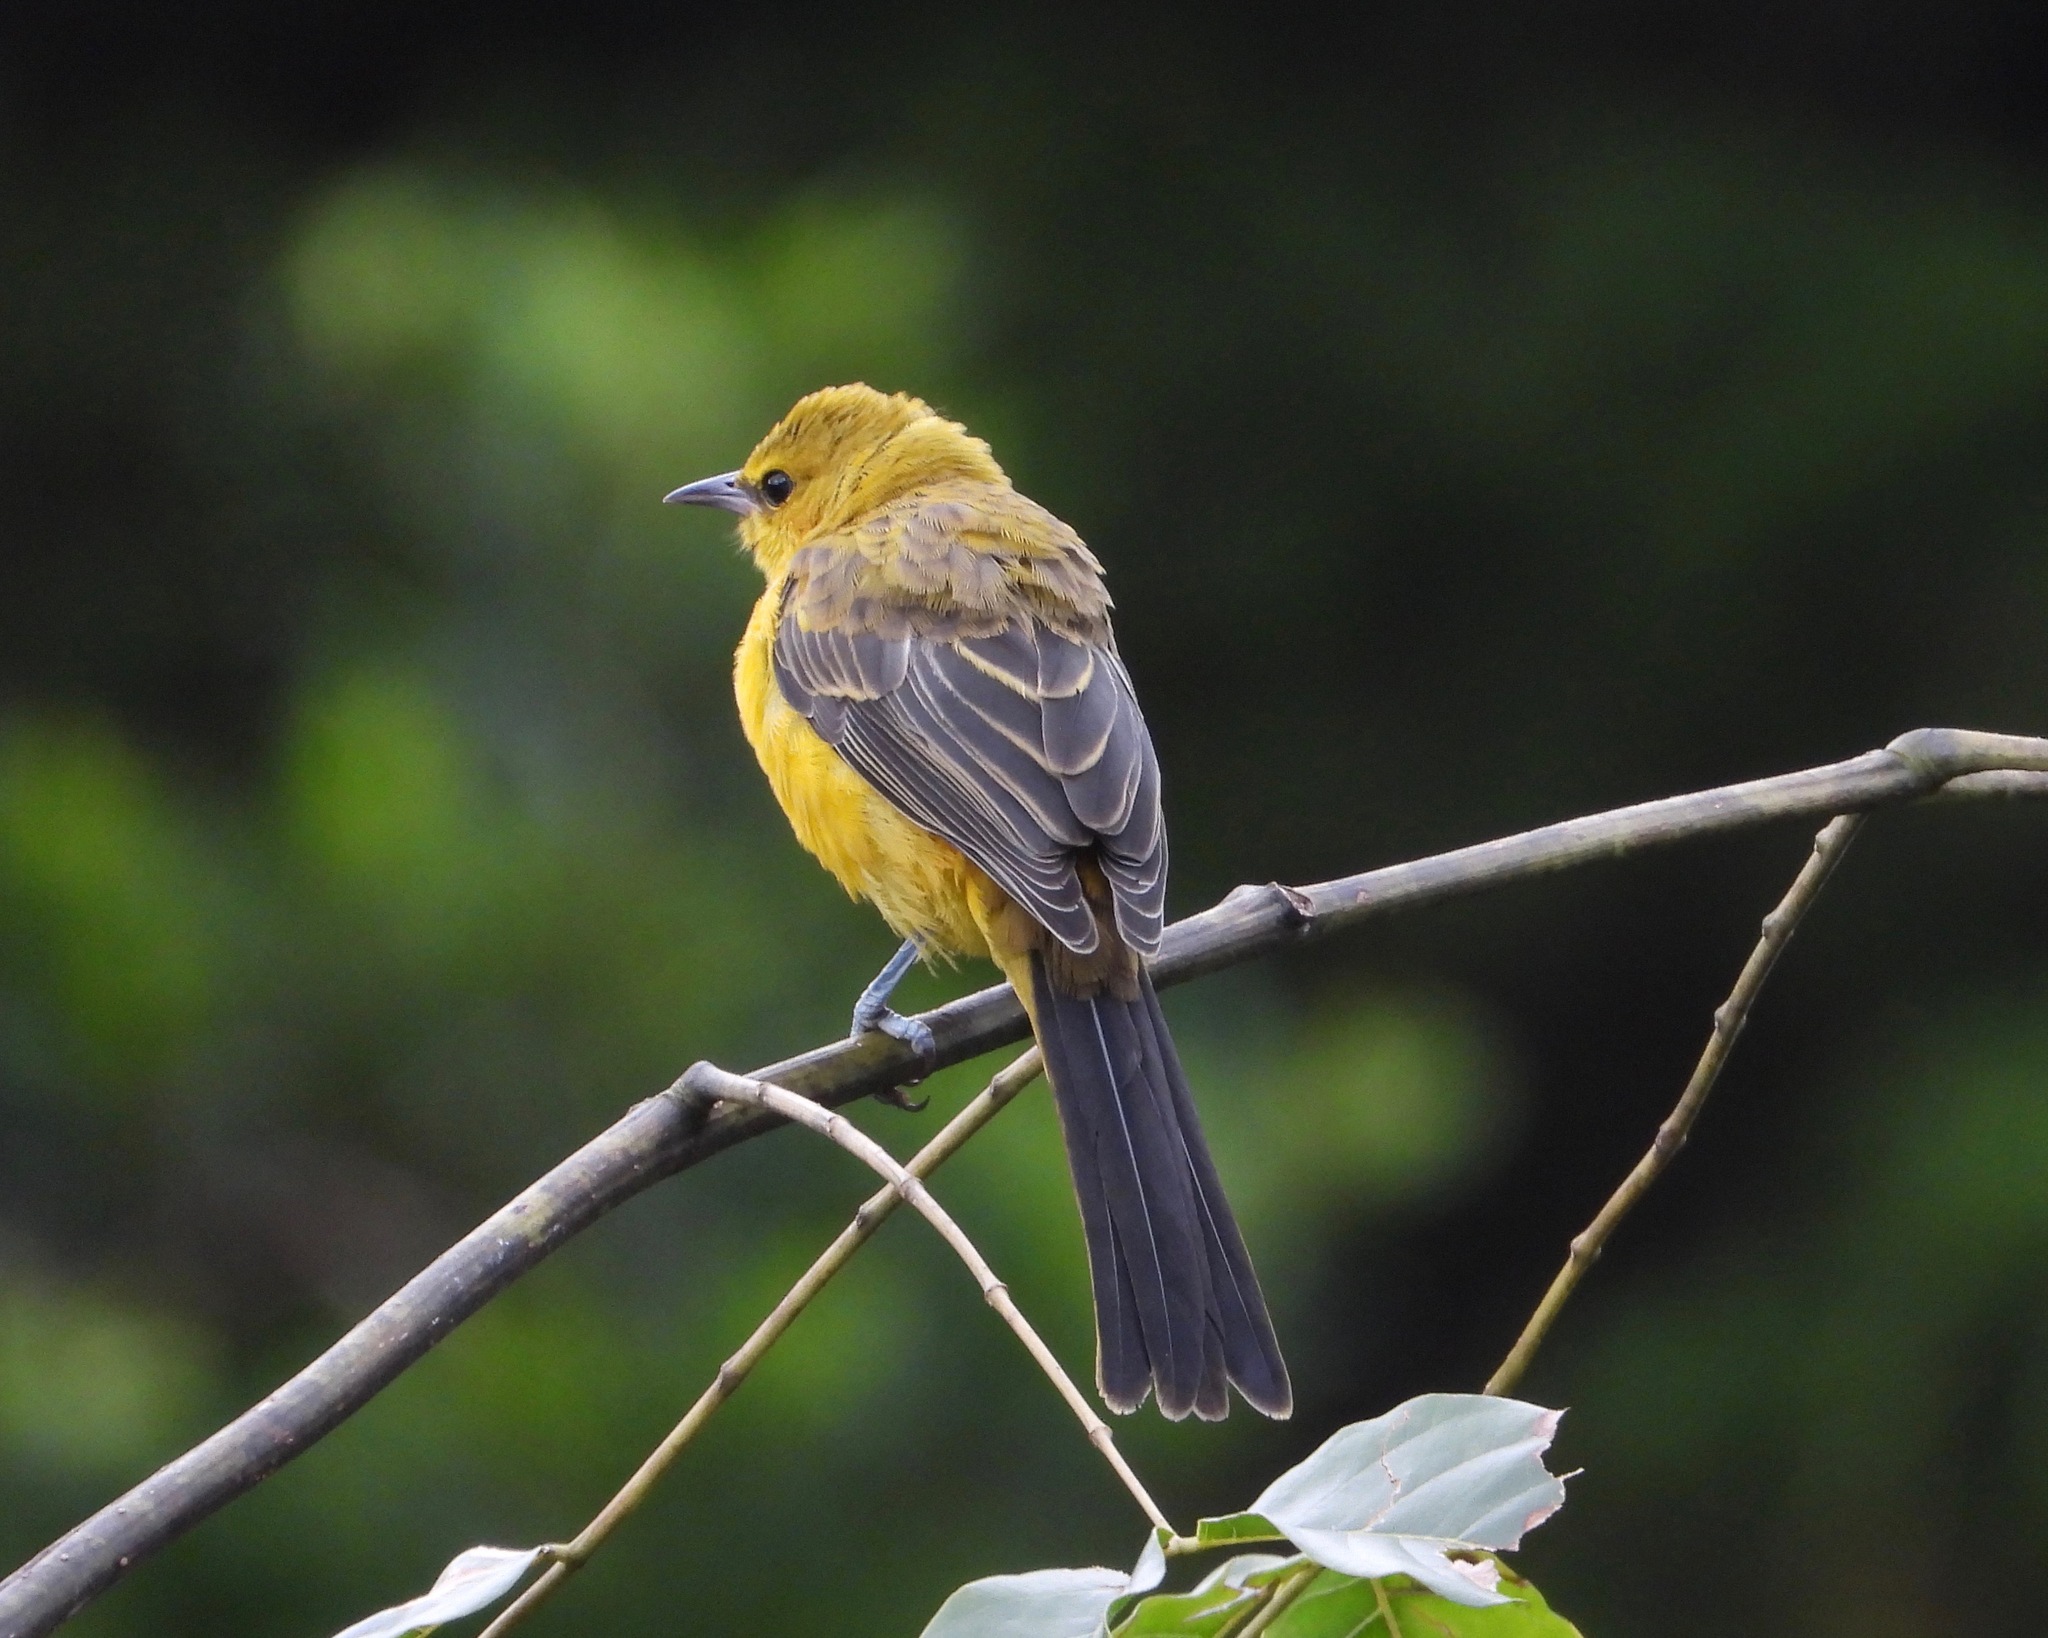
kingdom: Animalia
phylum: Chordata
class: Aves
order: Passeriformes
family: Icteridae
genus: Icterus
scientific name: Icterus wagleri
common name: Black-vented oriole
